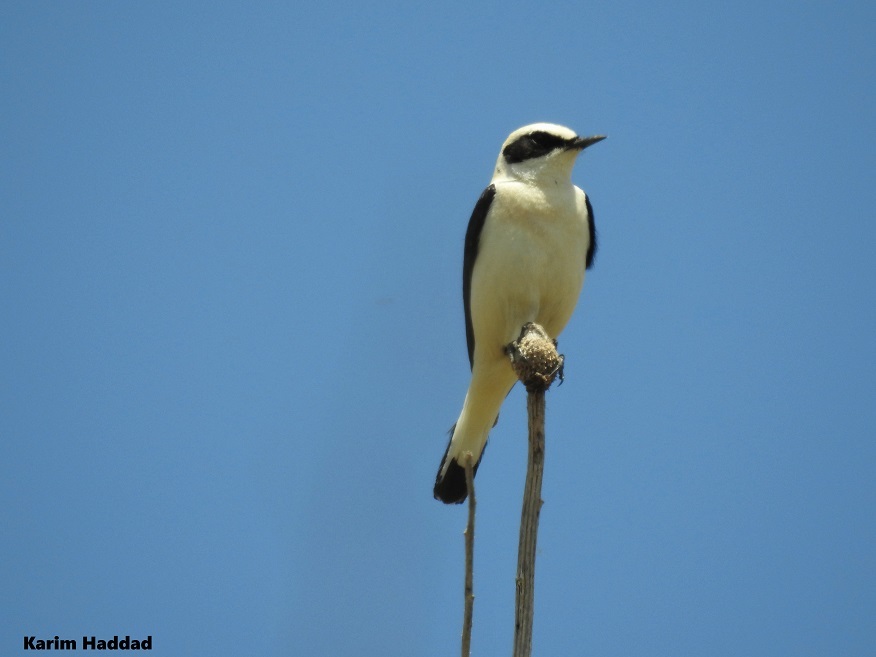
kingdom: Animalia
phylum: Chordata
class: Aves
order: Passeriformes
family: Muscicapidae
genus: Oenanthe
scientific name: Oenanthe hispanica
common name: Black-eared wheatear
